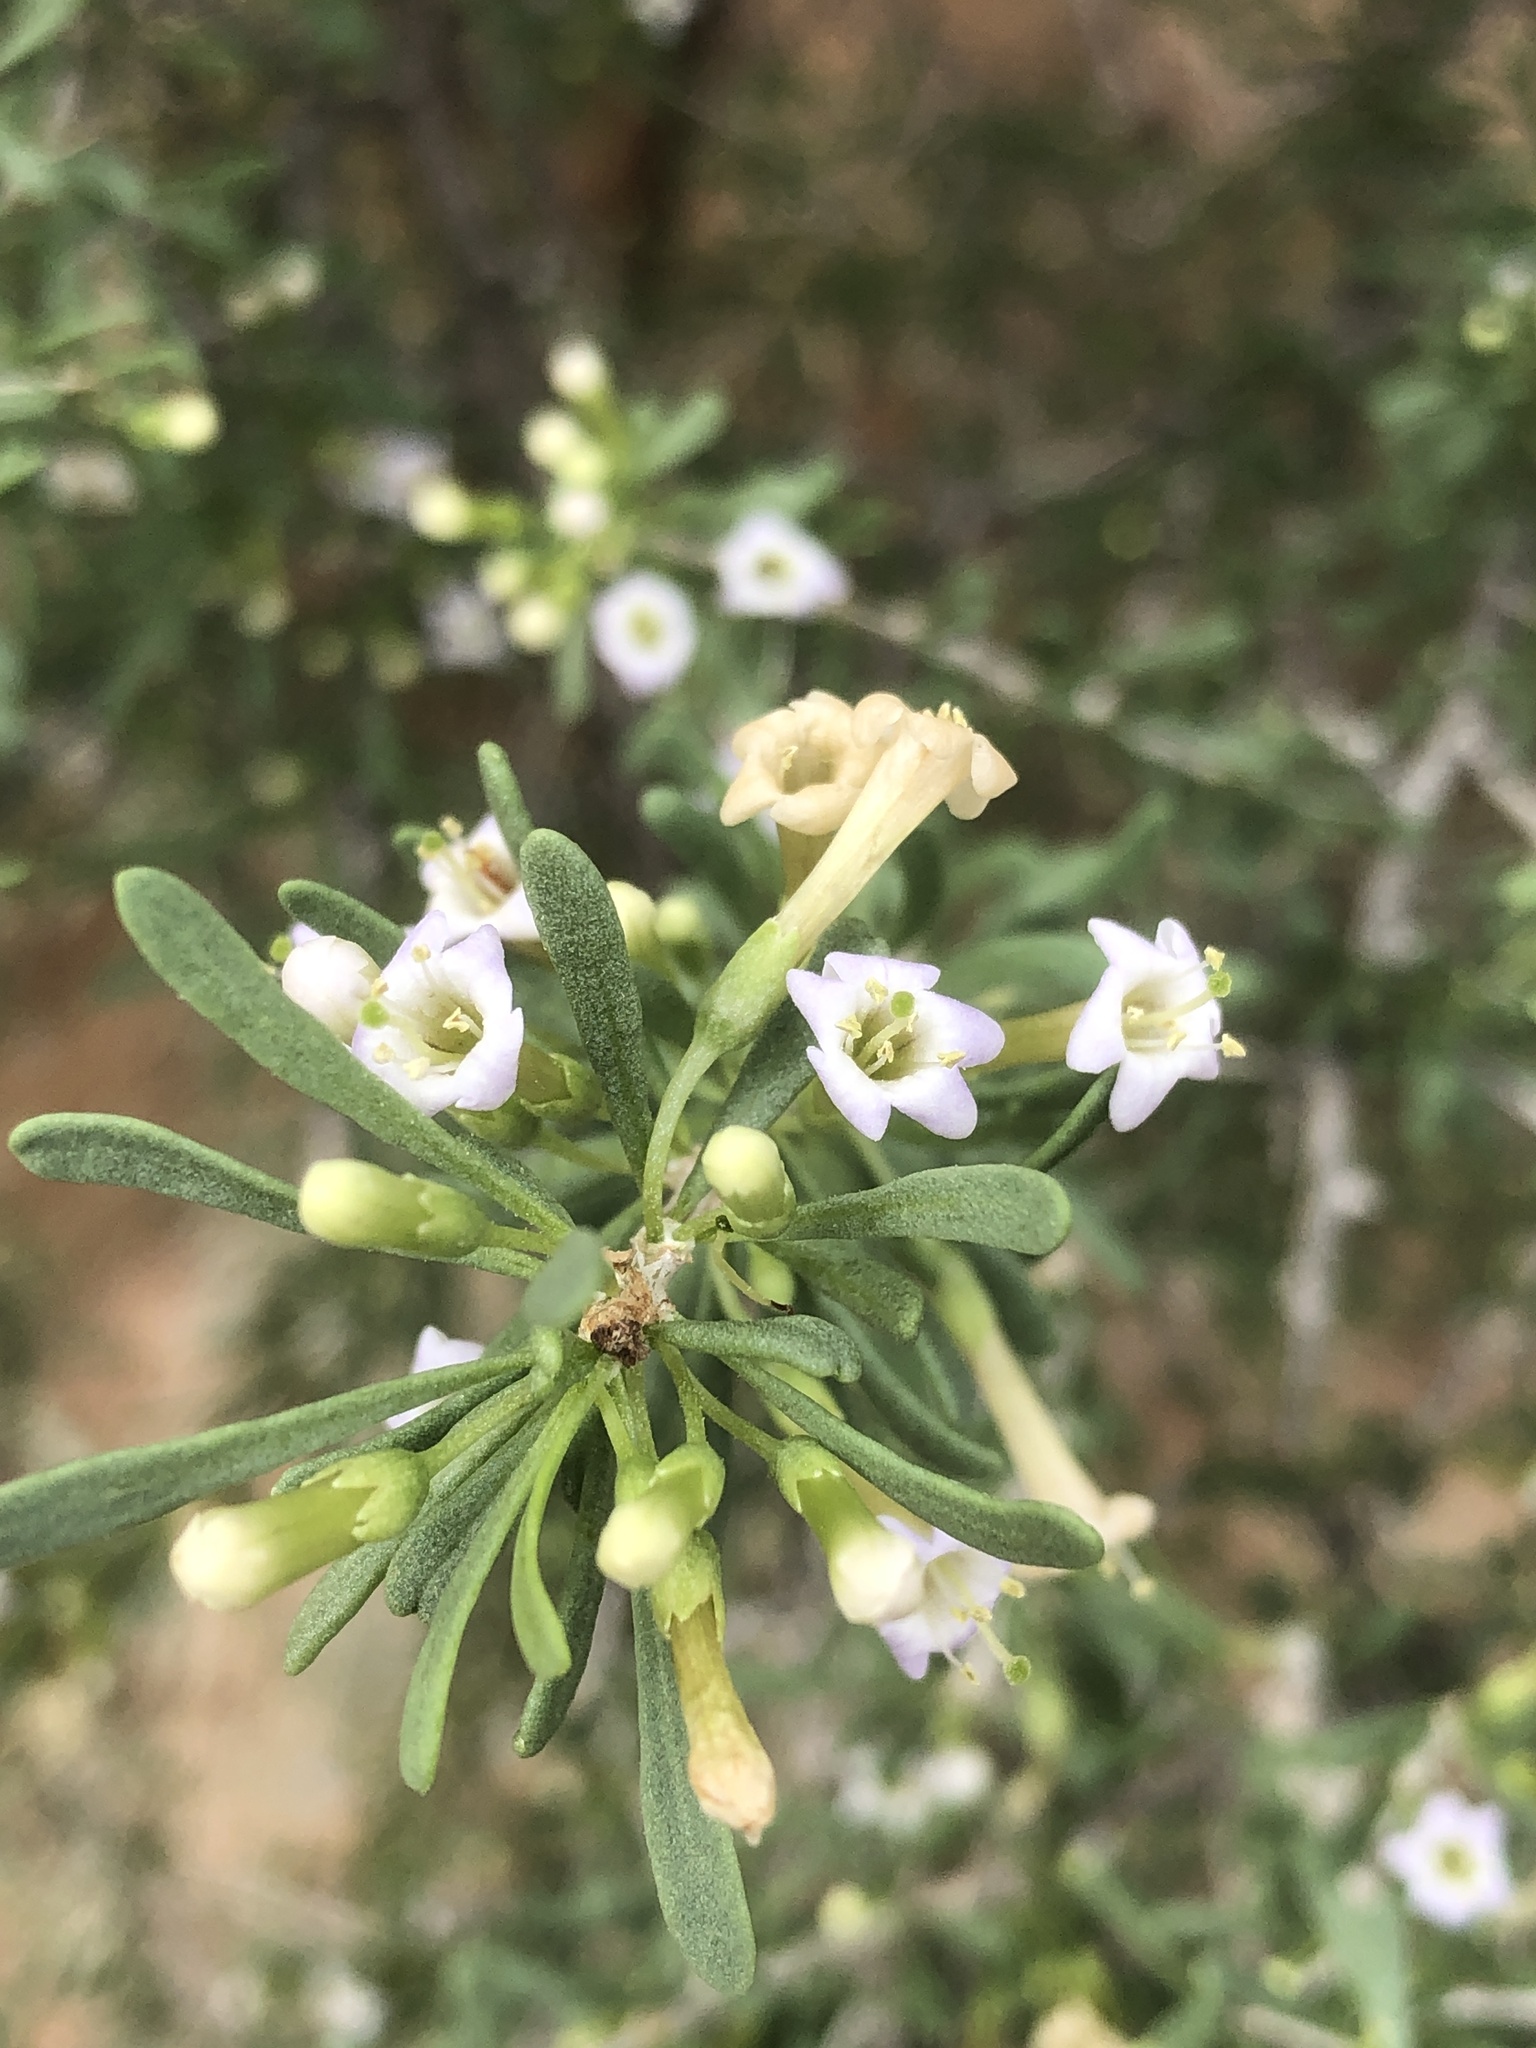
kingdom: Plantae
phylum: Tracheophyta
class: Magnoliopsida
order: Solanales
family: Solanaceae
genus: Lycium
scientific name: Lycium andersonii
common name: Water-jacket
